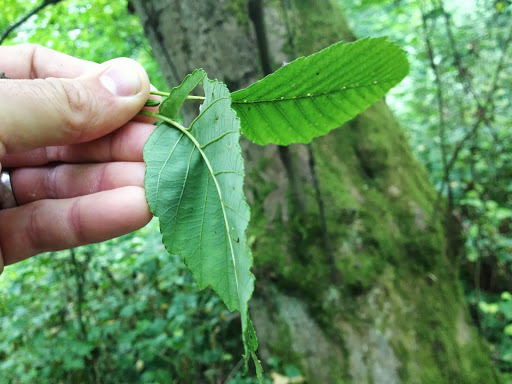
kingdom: Plantae
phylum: Tracheophyta
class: Magnoliopsida
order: Fagales
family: Betulaceae
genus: Alnus
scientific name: Alnus rubra
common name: Red alder
